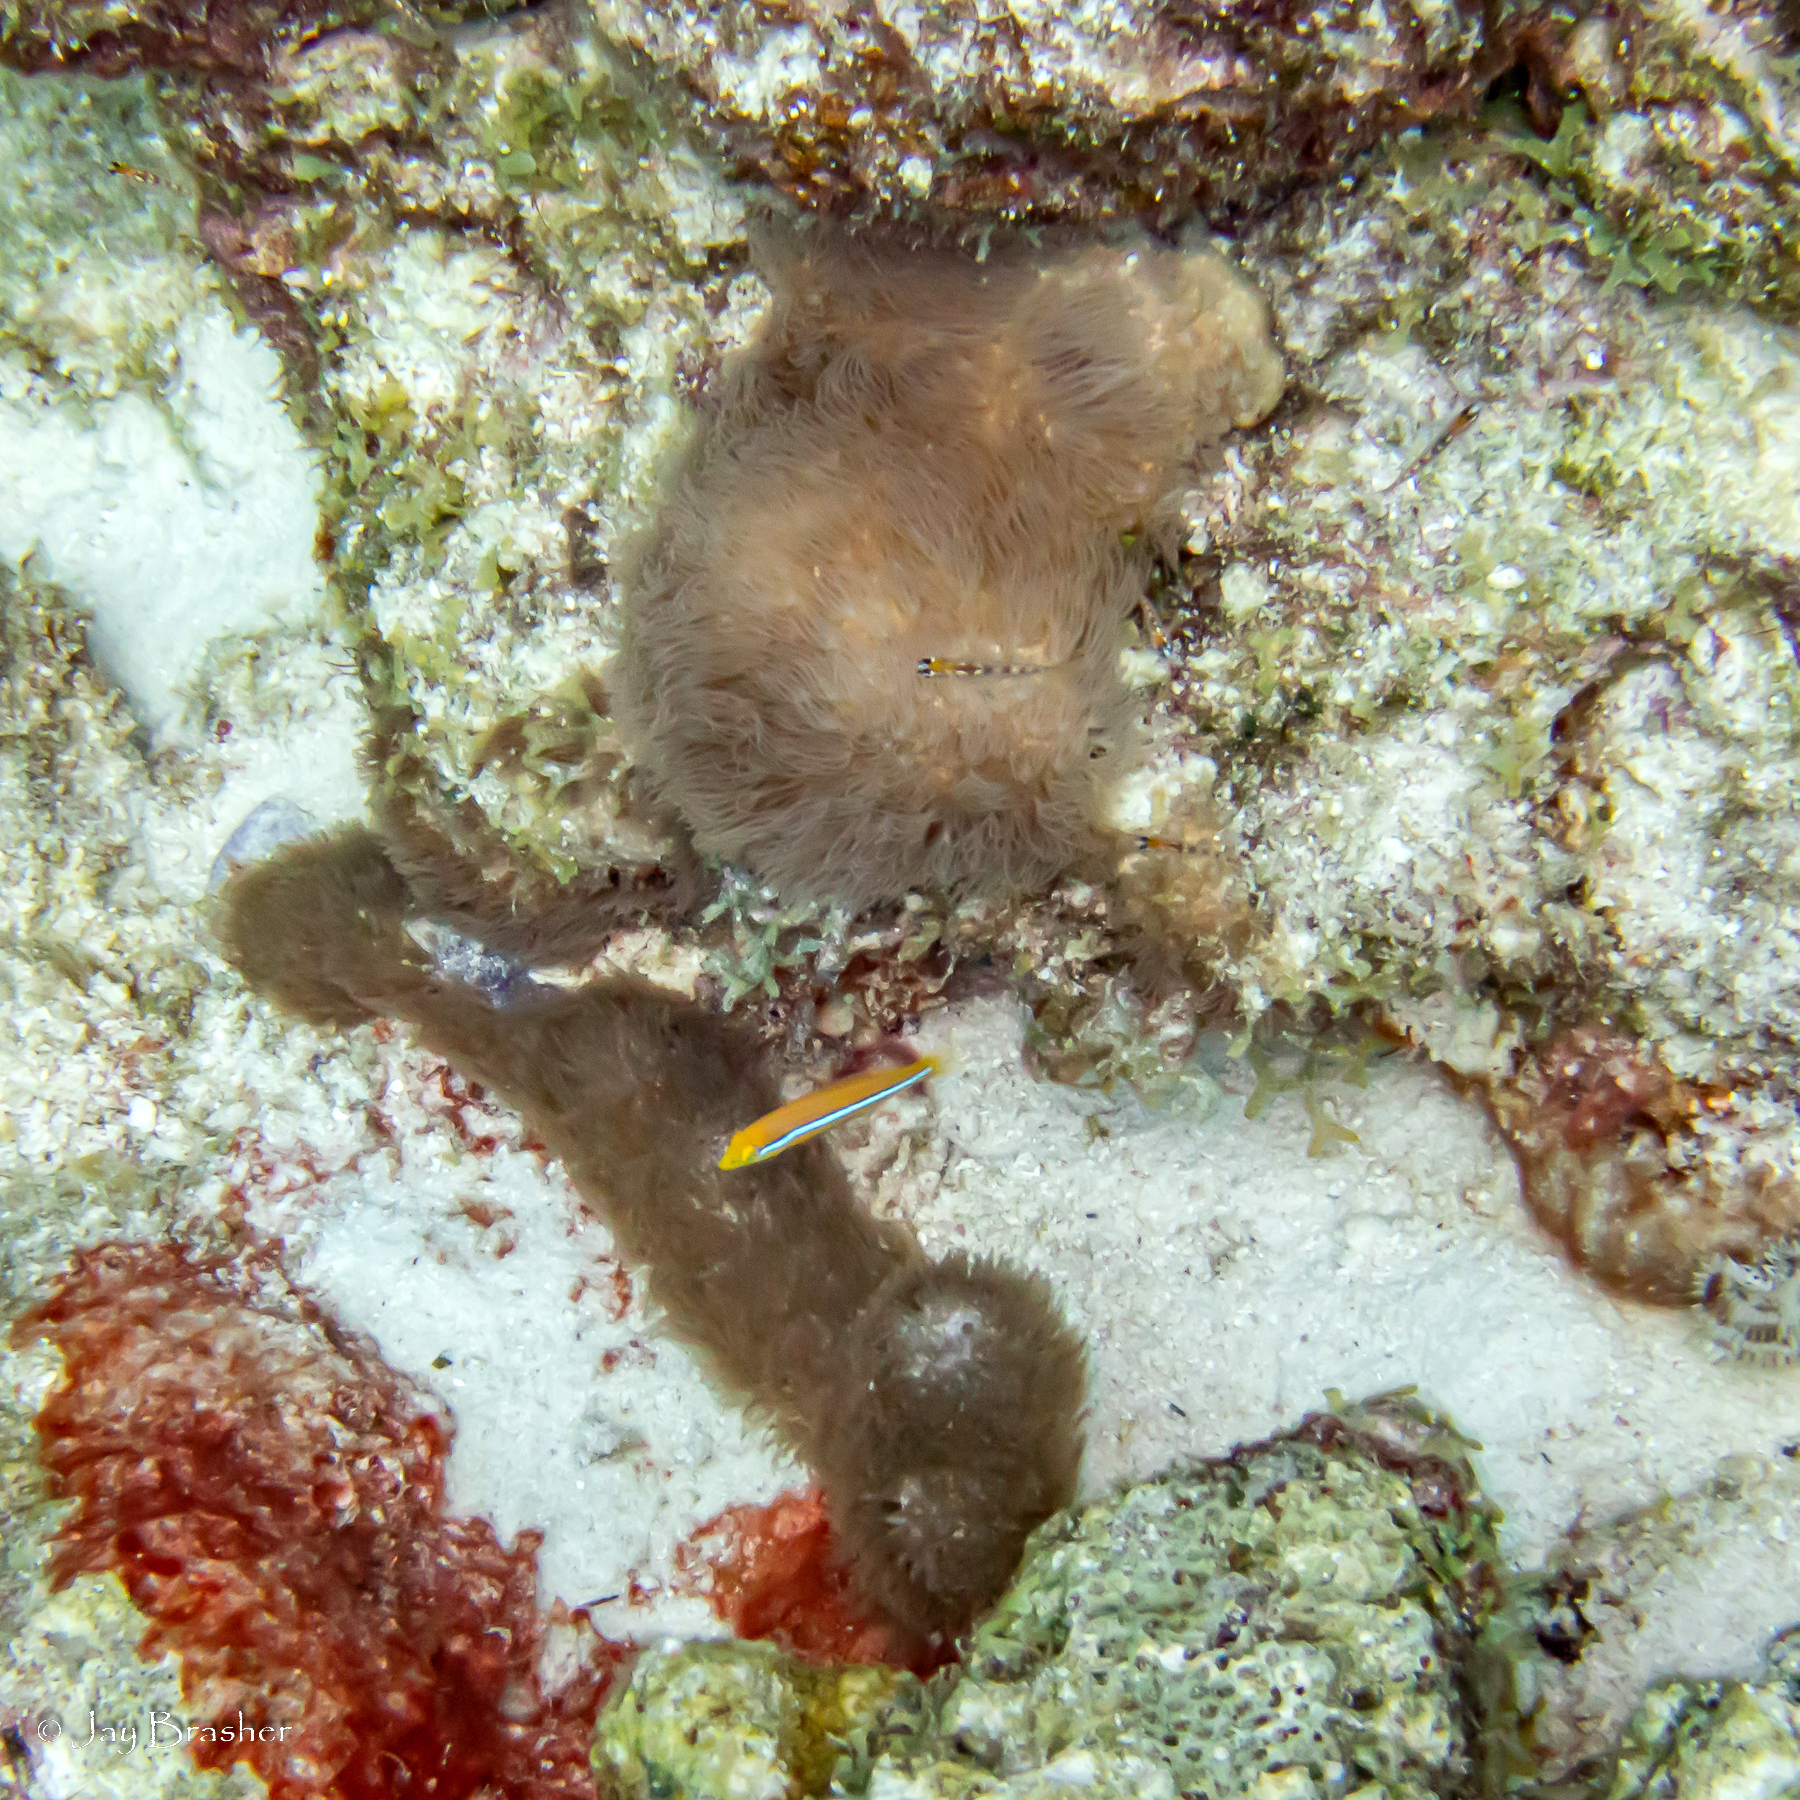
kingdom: Animalia
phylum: Chordata
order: Perciformes
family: Labridae
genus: Halichoeres
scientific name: Halichoeres garnoti
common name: Yellowhead wrasse
